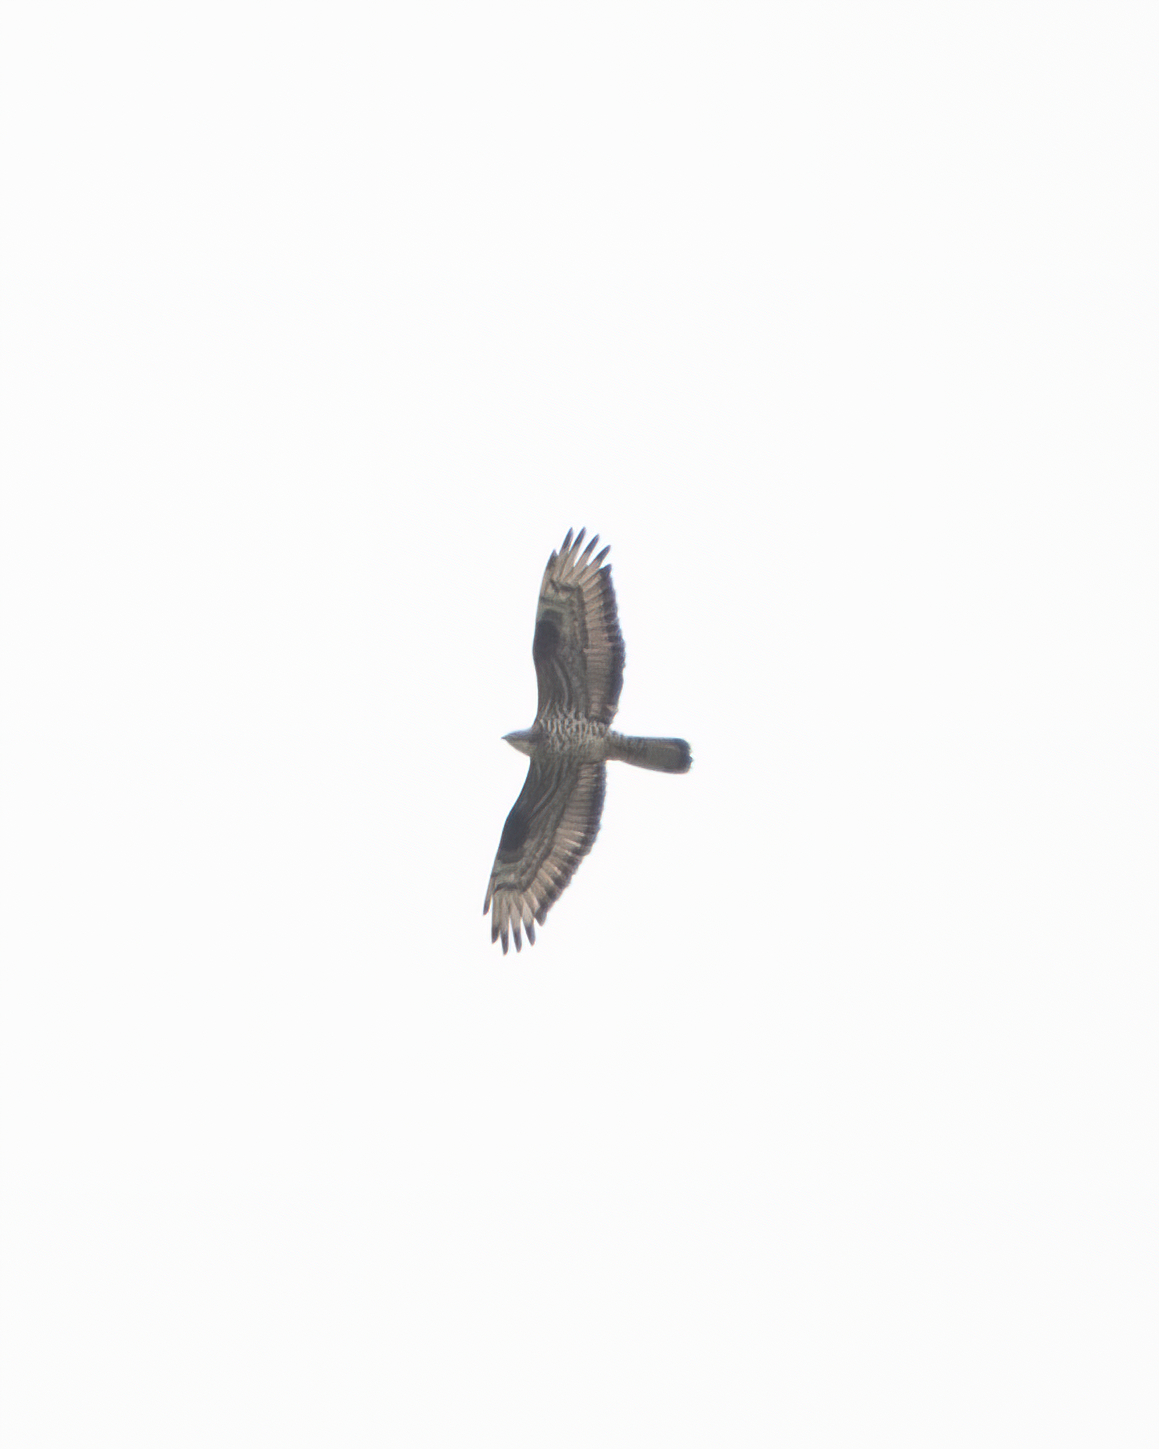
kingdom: Animalia
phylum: Chordata
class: Aves
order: Accipitriformes
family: Accipitridae
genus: Pernis
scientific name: Pernis apivorus
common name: European honey buzzard
